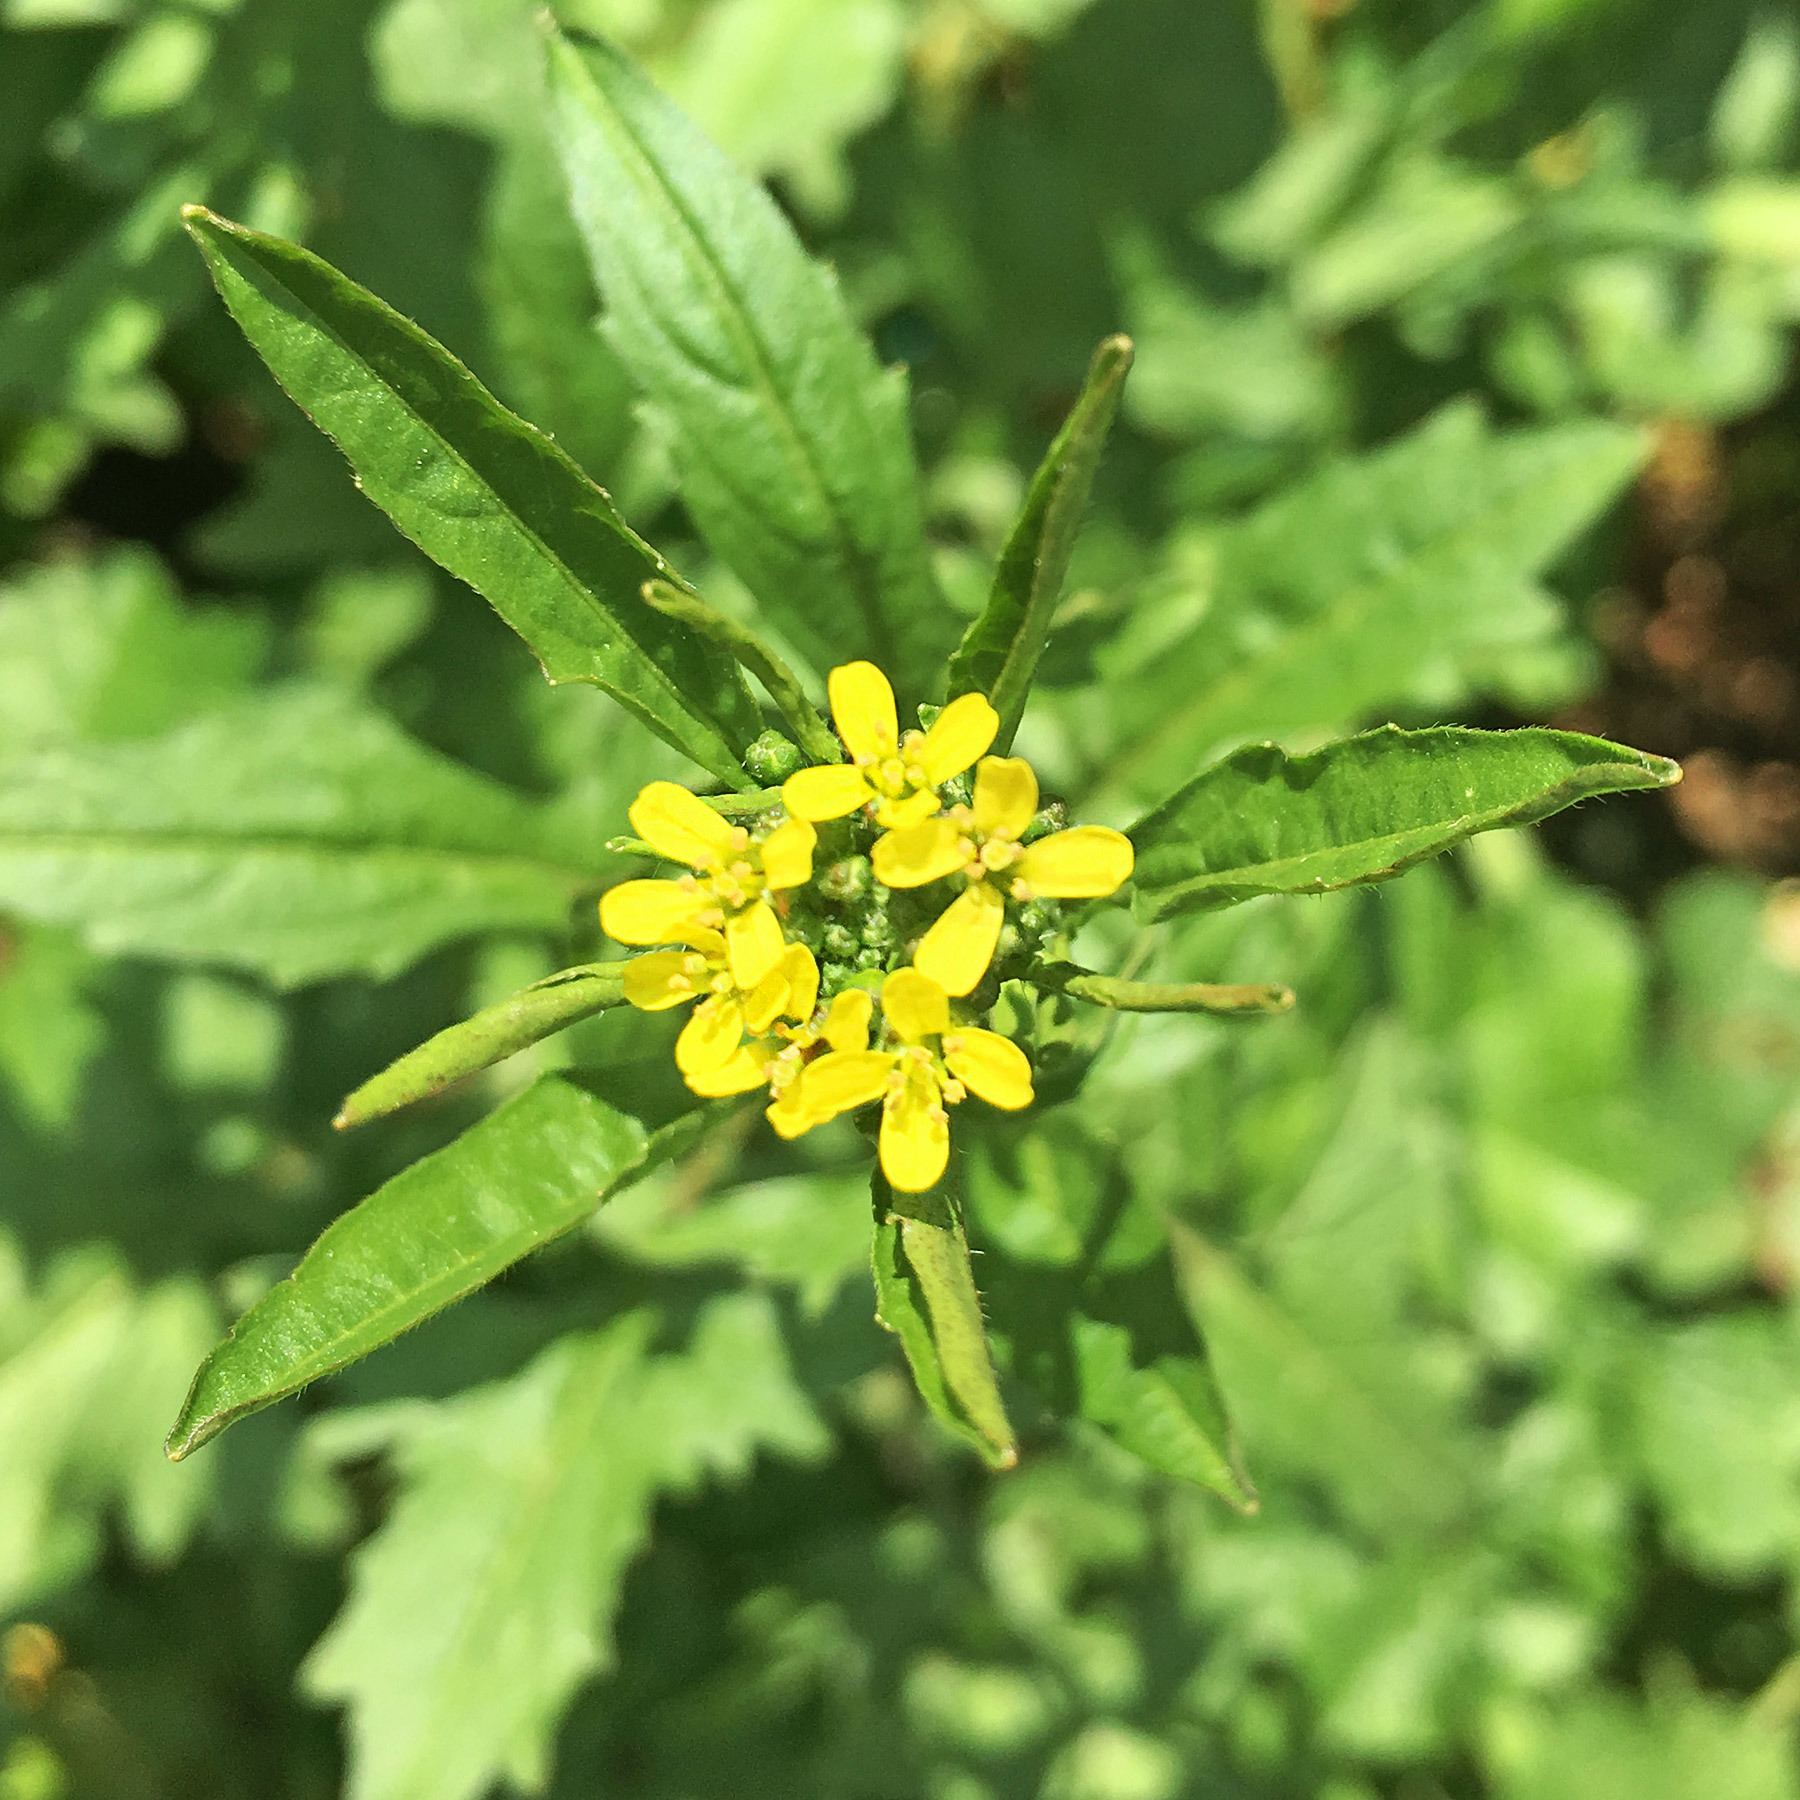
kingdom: Plantae
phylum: Tracheophyta
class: Magnoliopsida
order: Brassicales
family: Brassicaceae
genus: Sisymbrium
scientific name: Sisymbrium officinale
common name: Hedge mustard
